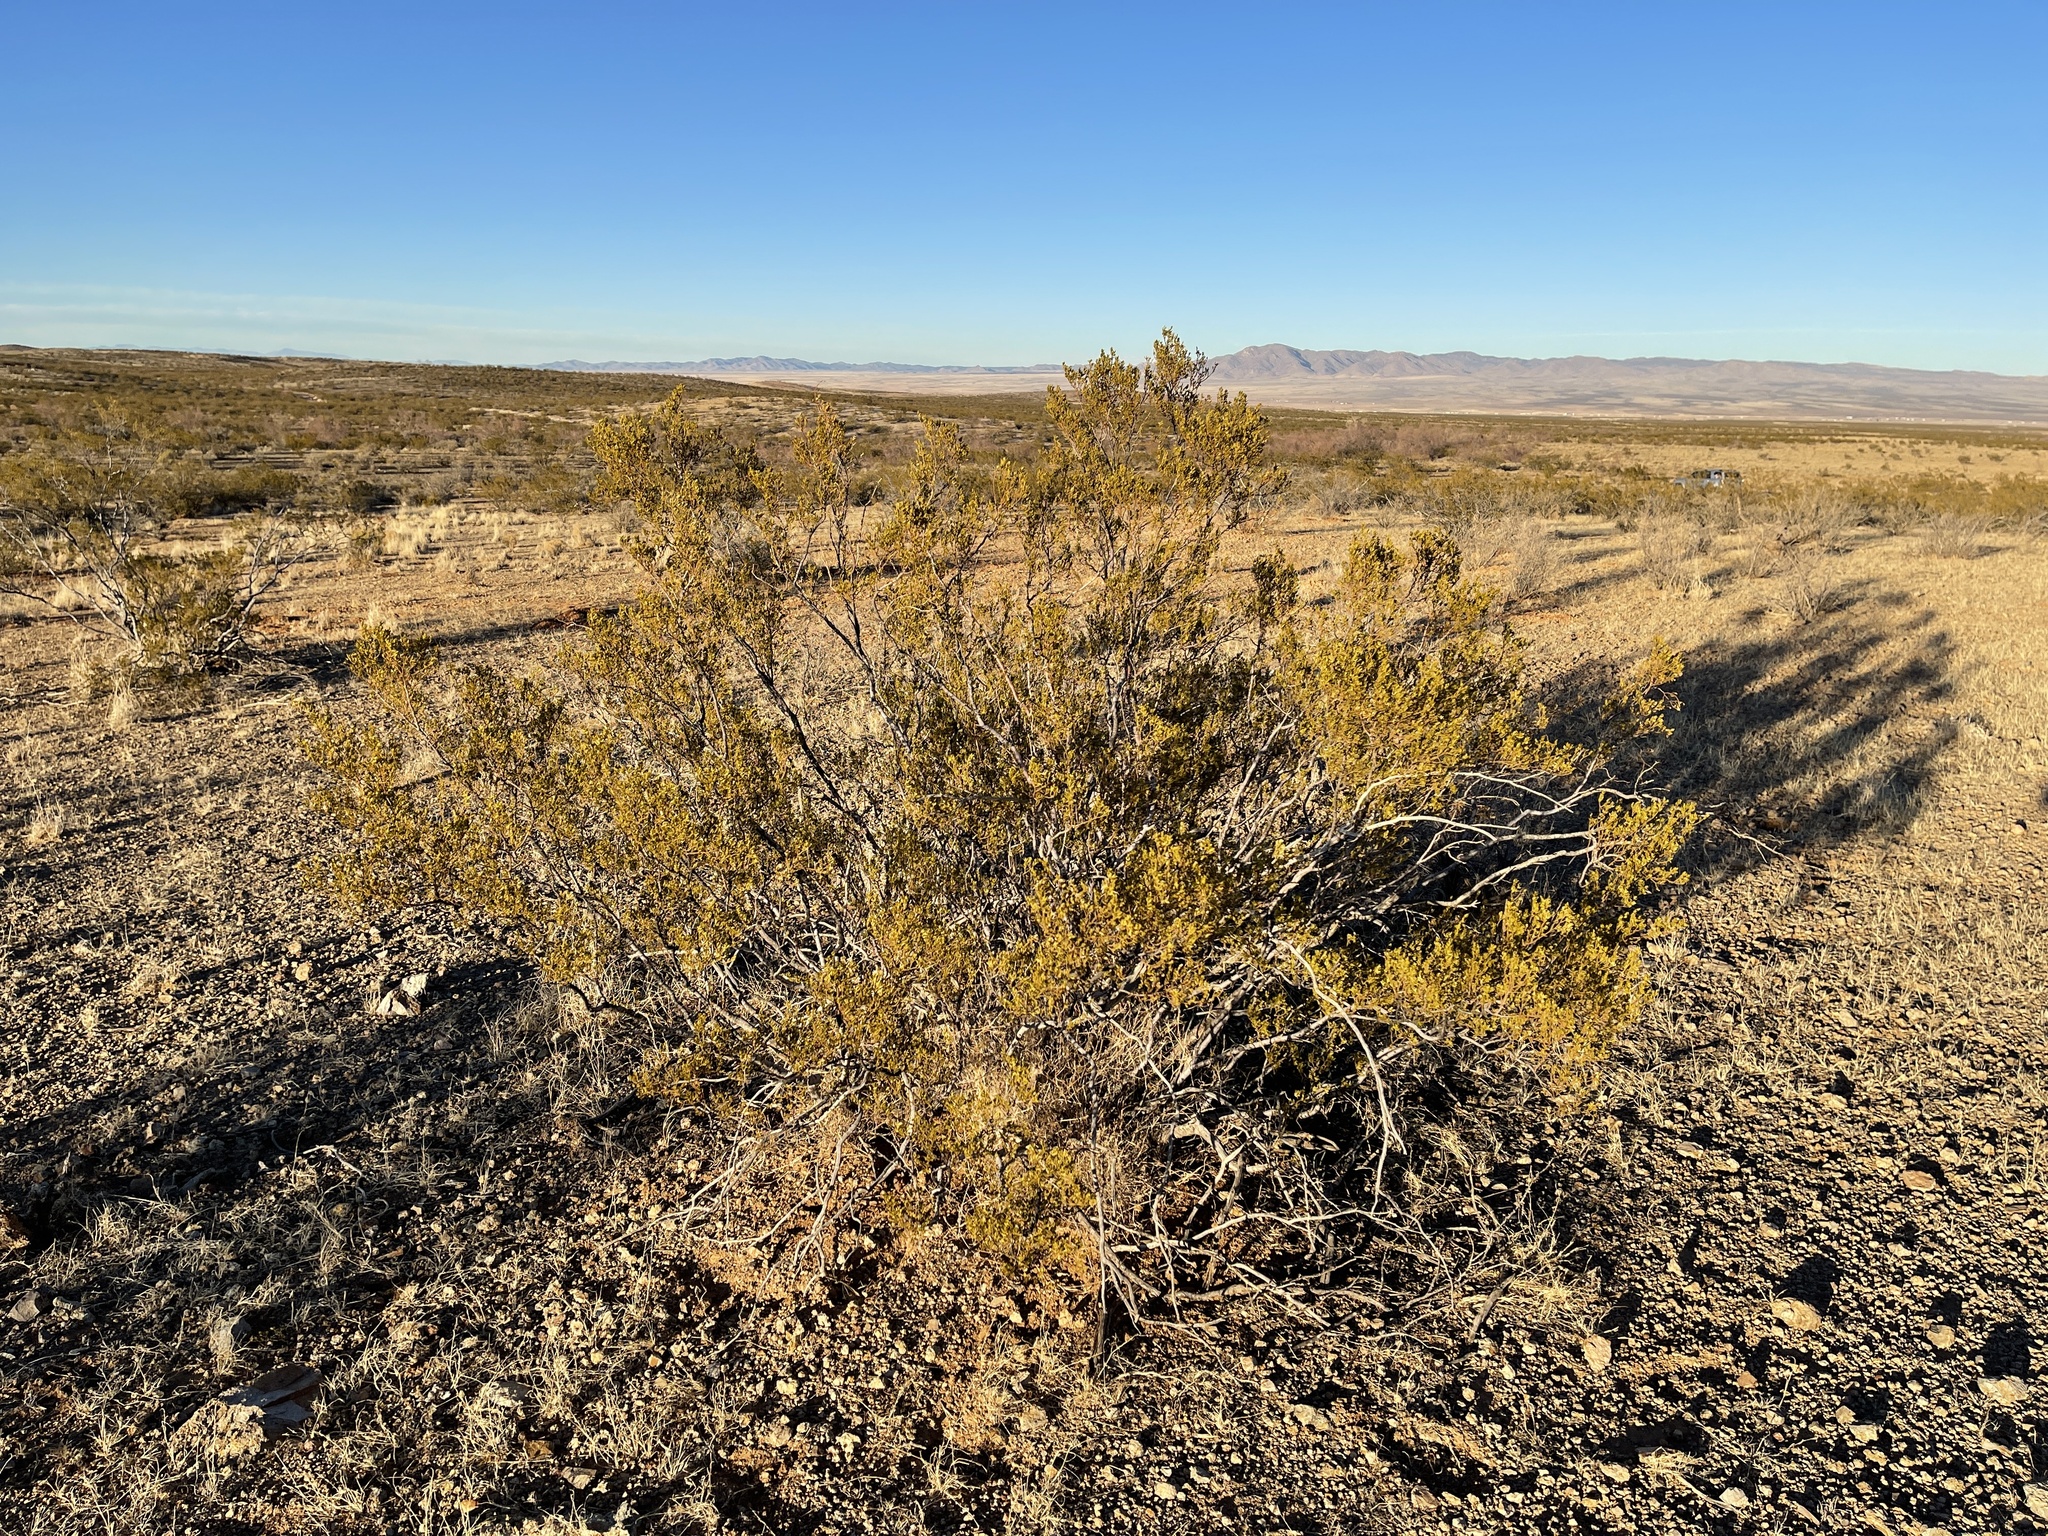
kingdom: Plantae
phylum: Tracheophyta
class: Magnoliopsida
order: Zygophyllales
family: Zygophyllaceae
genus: Larrea
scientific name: Larrea tridentata
